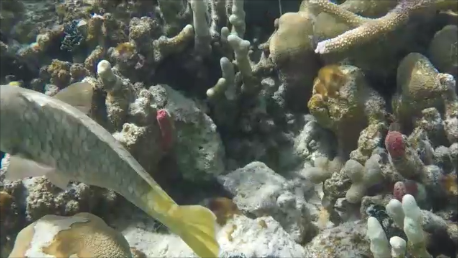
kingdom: Animalia
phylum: Chordata
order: Perciformes
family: Scaridae
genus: Sparisoma
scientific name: Sparisoma rubripinne
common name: Redfin parrotfish
